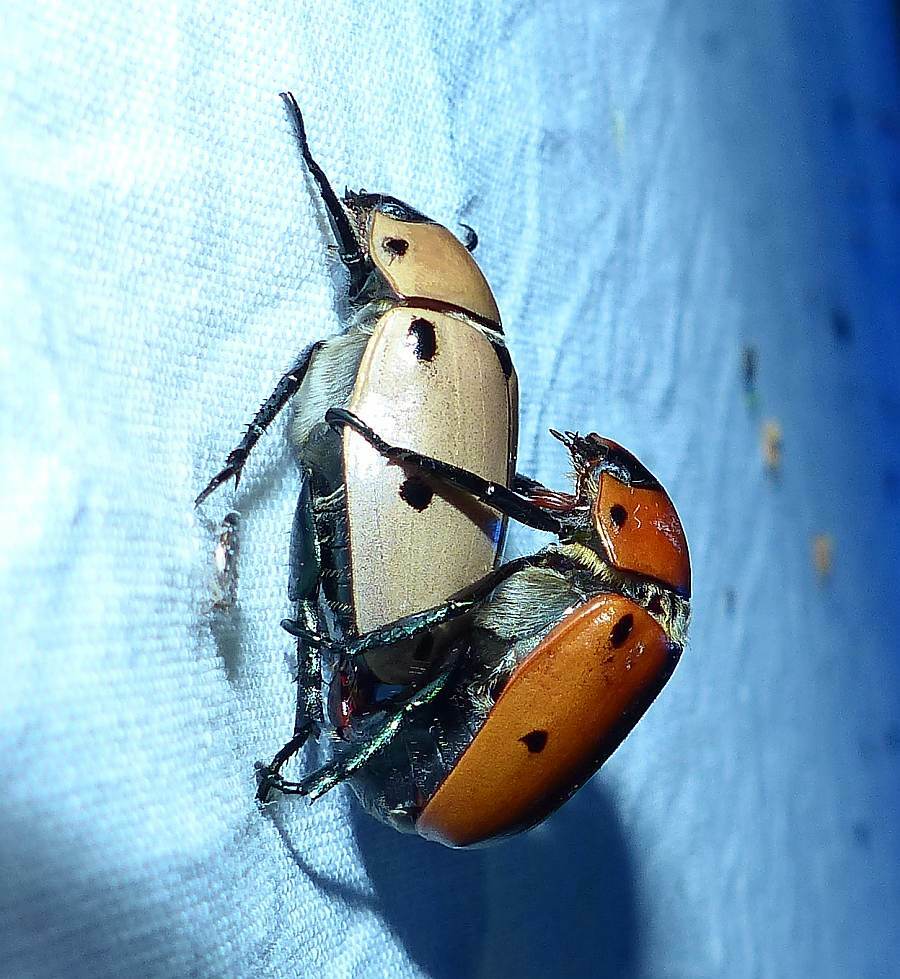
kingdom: Animalia
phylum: Arthropoda
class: Insecta
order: Coleoptera
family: Scarabaeidae
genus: Pelidnota
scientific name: Pelidnota punctata
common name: Grapevine beetle
